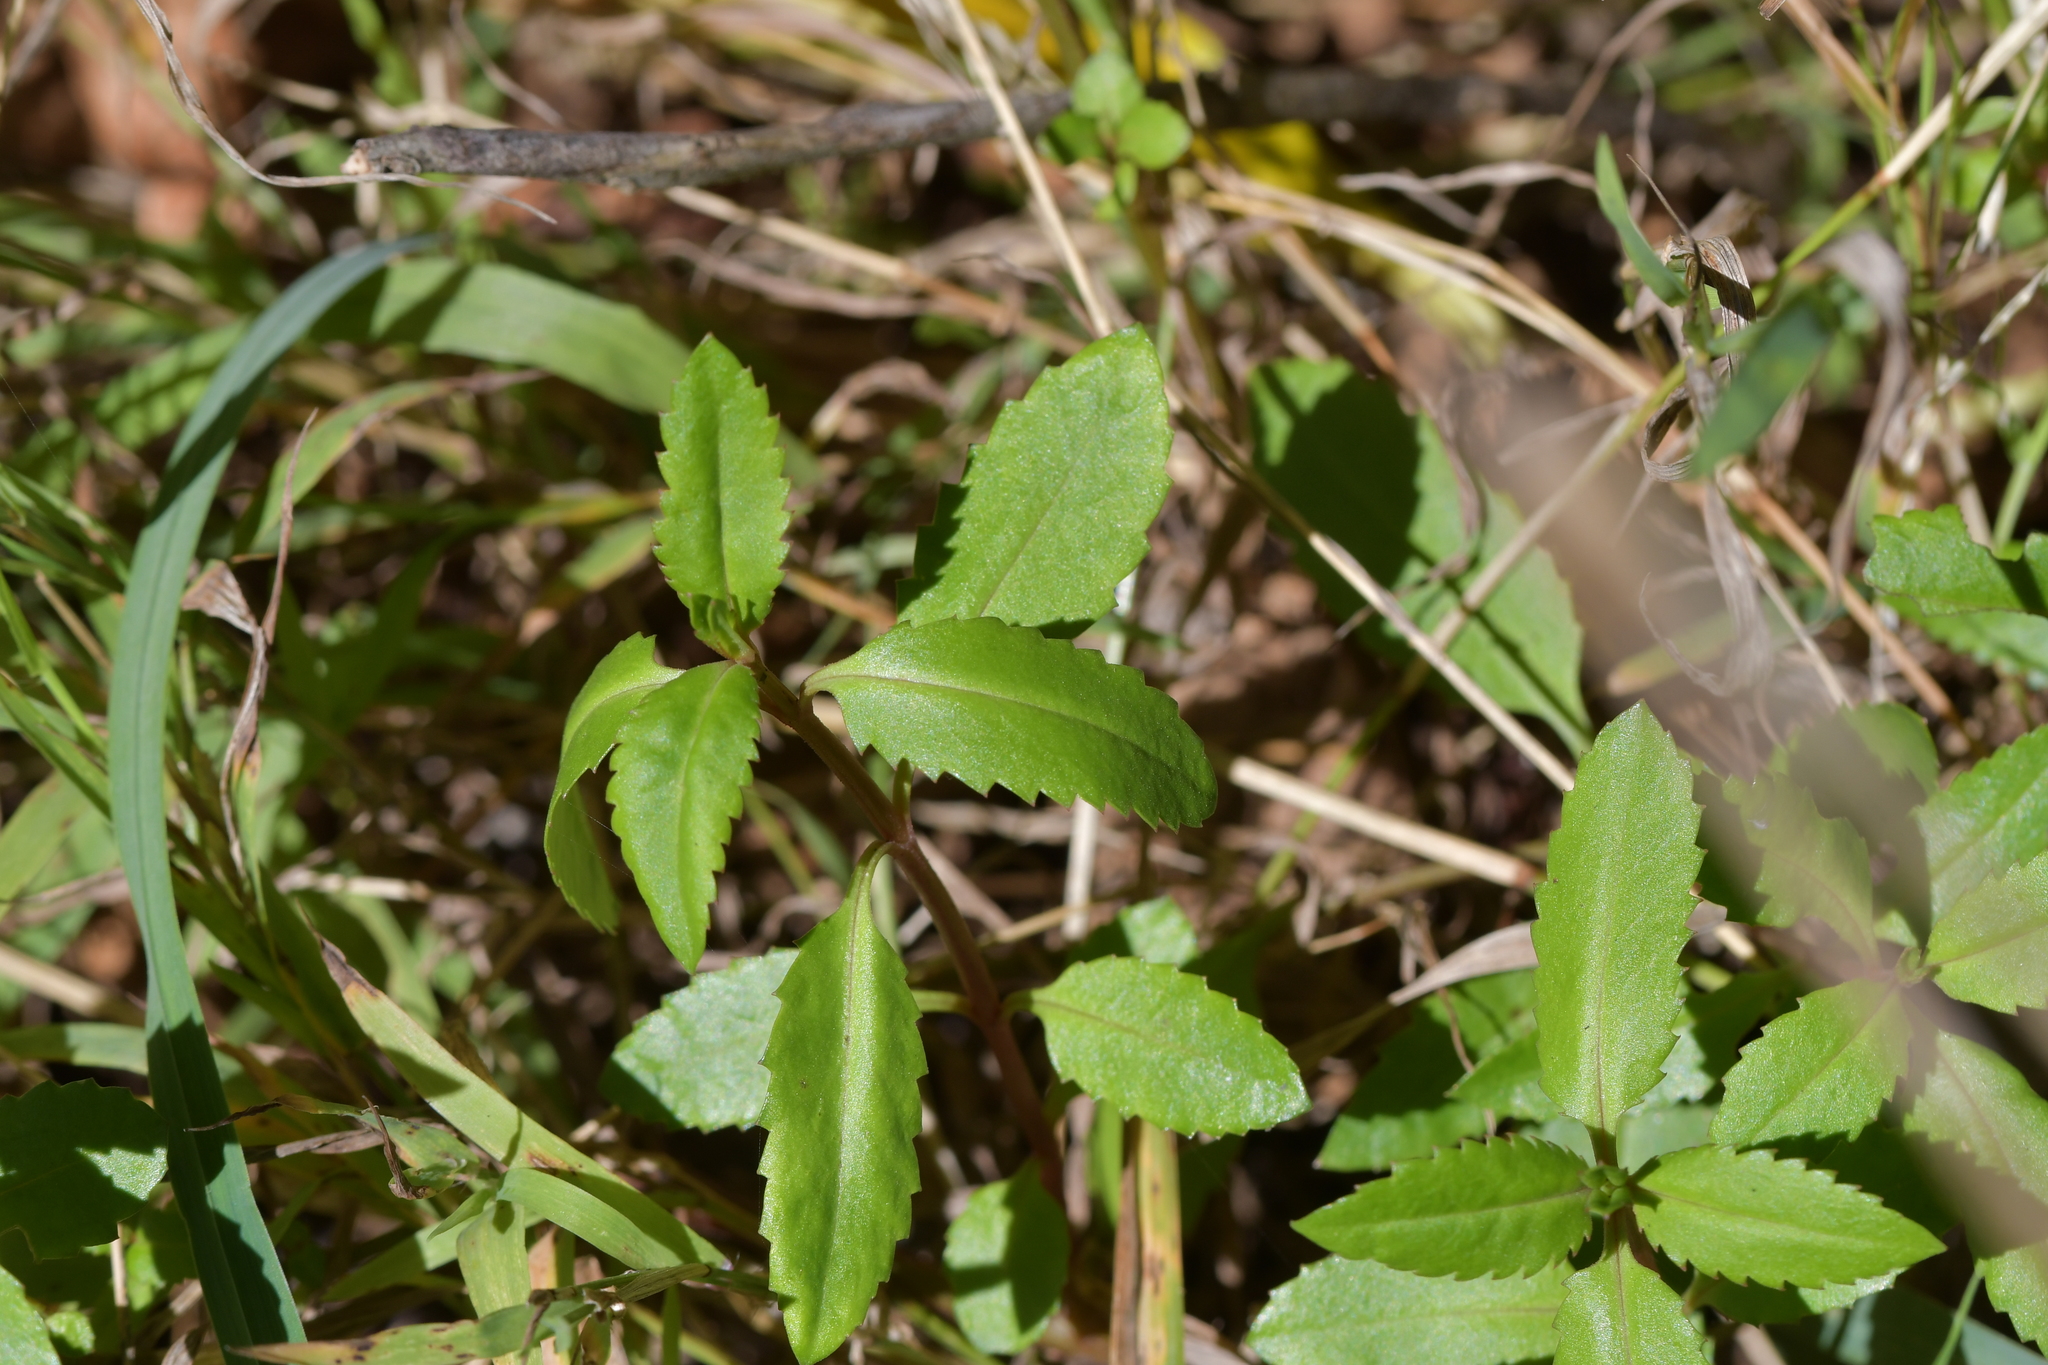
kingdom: Plantae
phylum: Tracheophyta
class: Magnoliopsida
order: Saxifragales
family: Haloragaceae
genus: Haloragis
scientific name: Haloragis erecta
